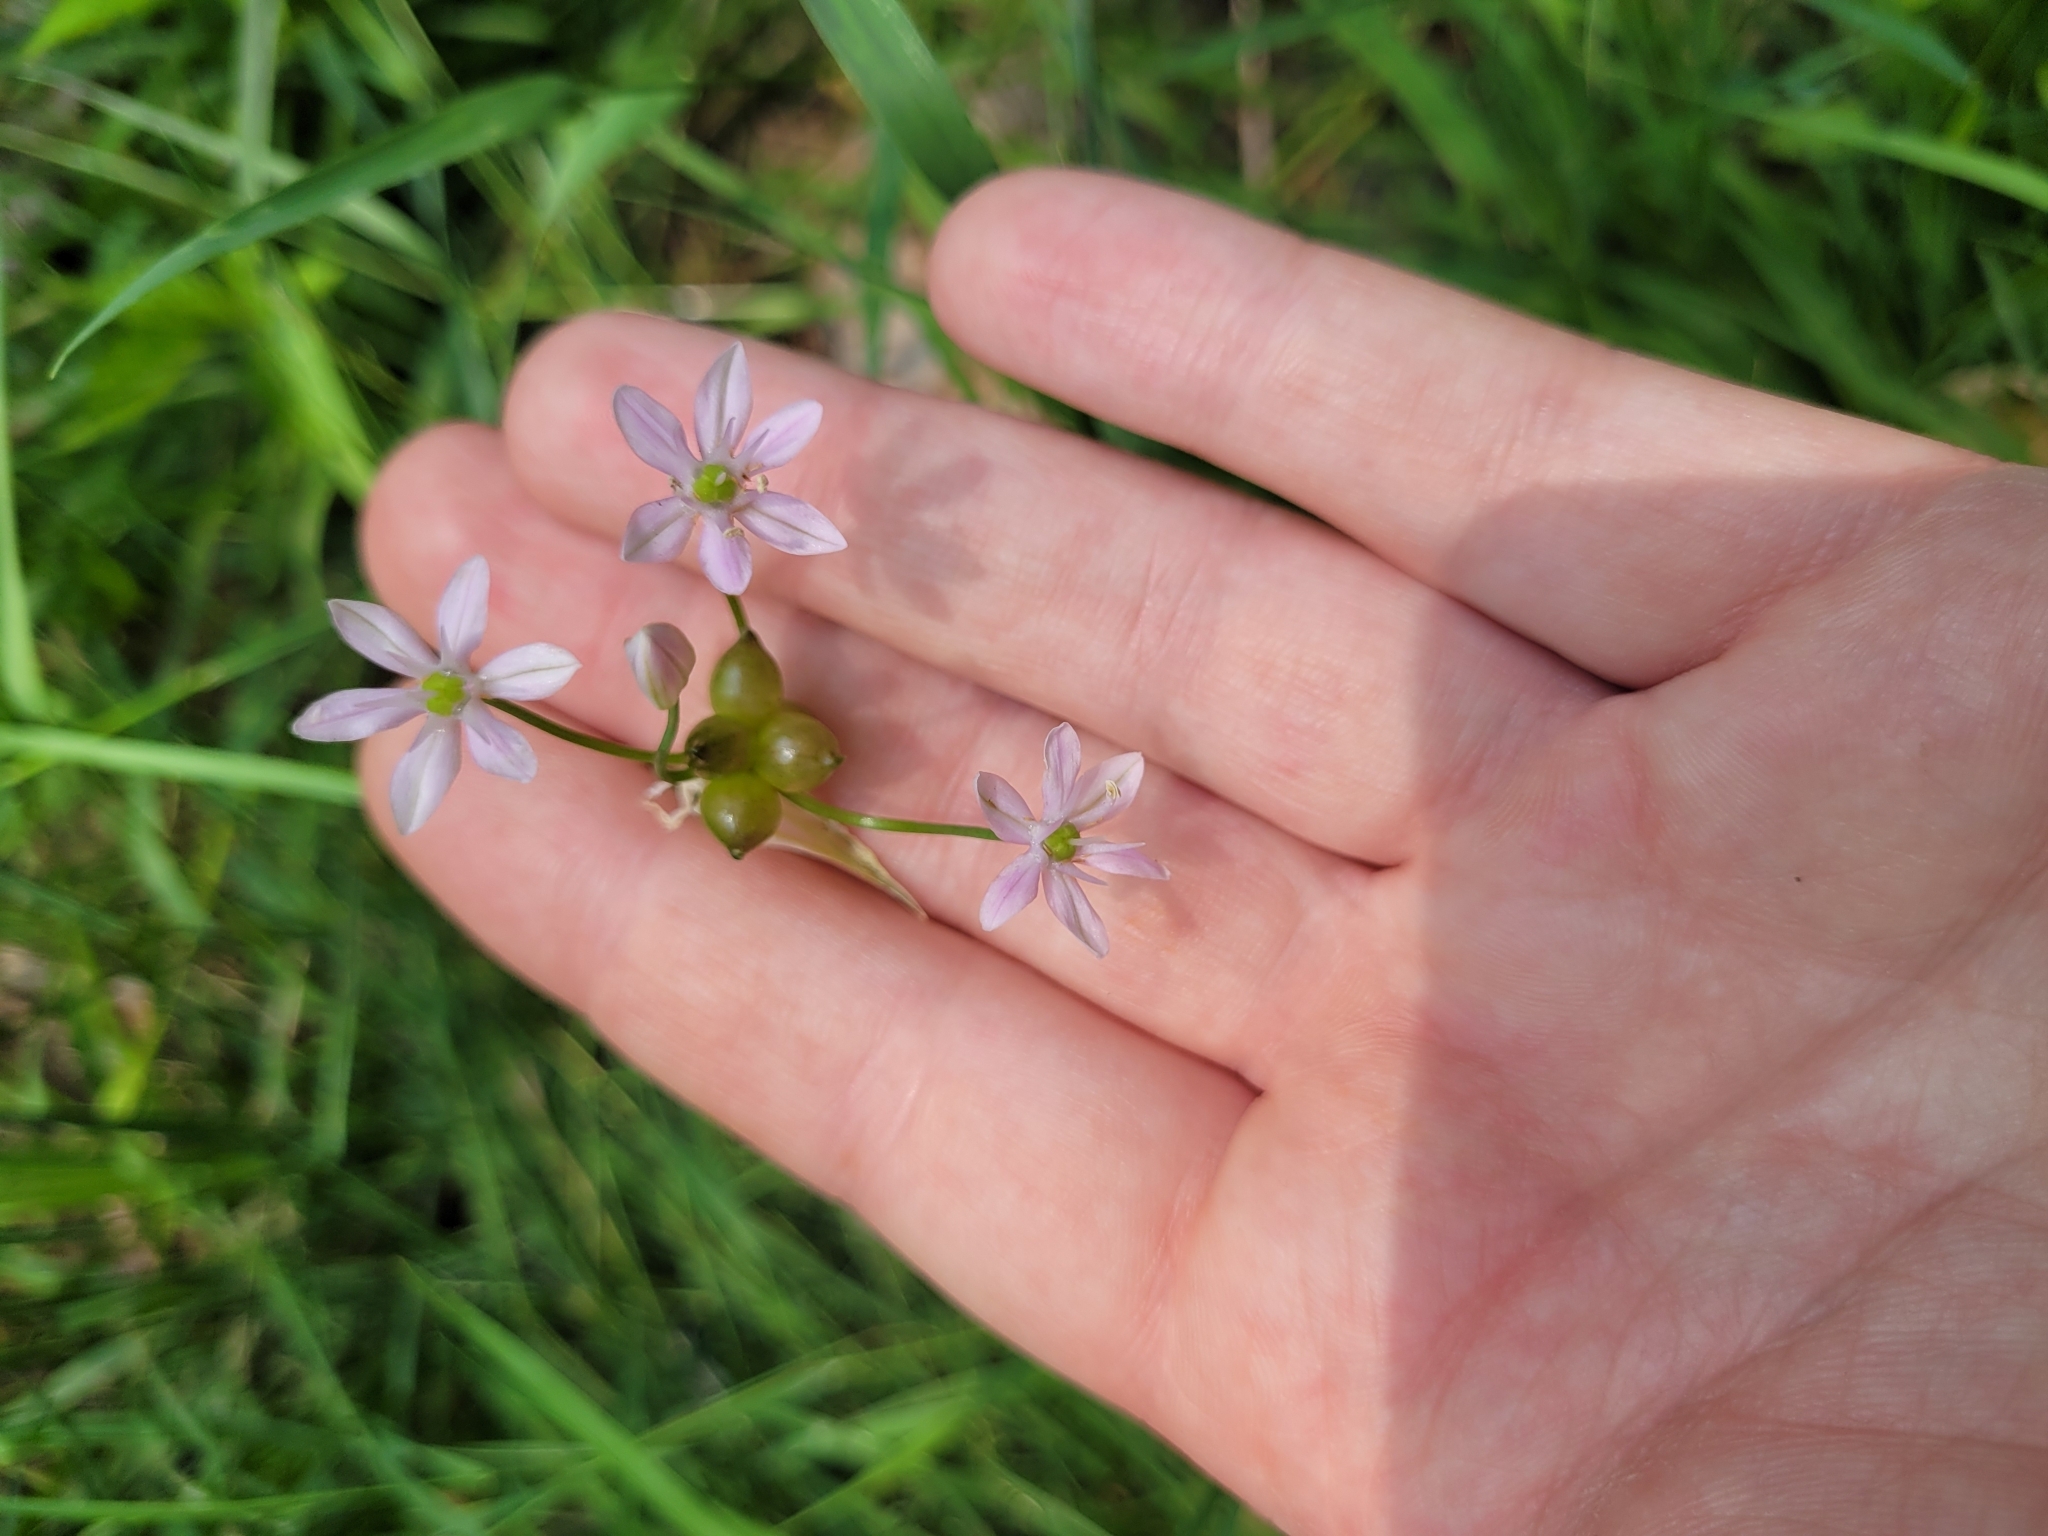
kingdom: Plantae
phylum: Tracheophyta
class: Liliopsida
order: Asparagales
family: Amaryllidaceae
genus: Allium
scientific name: Allium canadense
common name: Meadow garlic
